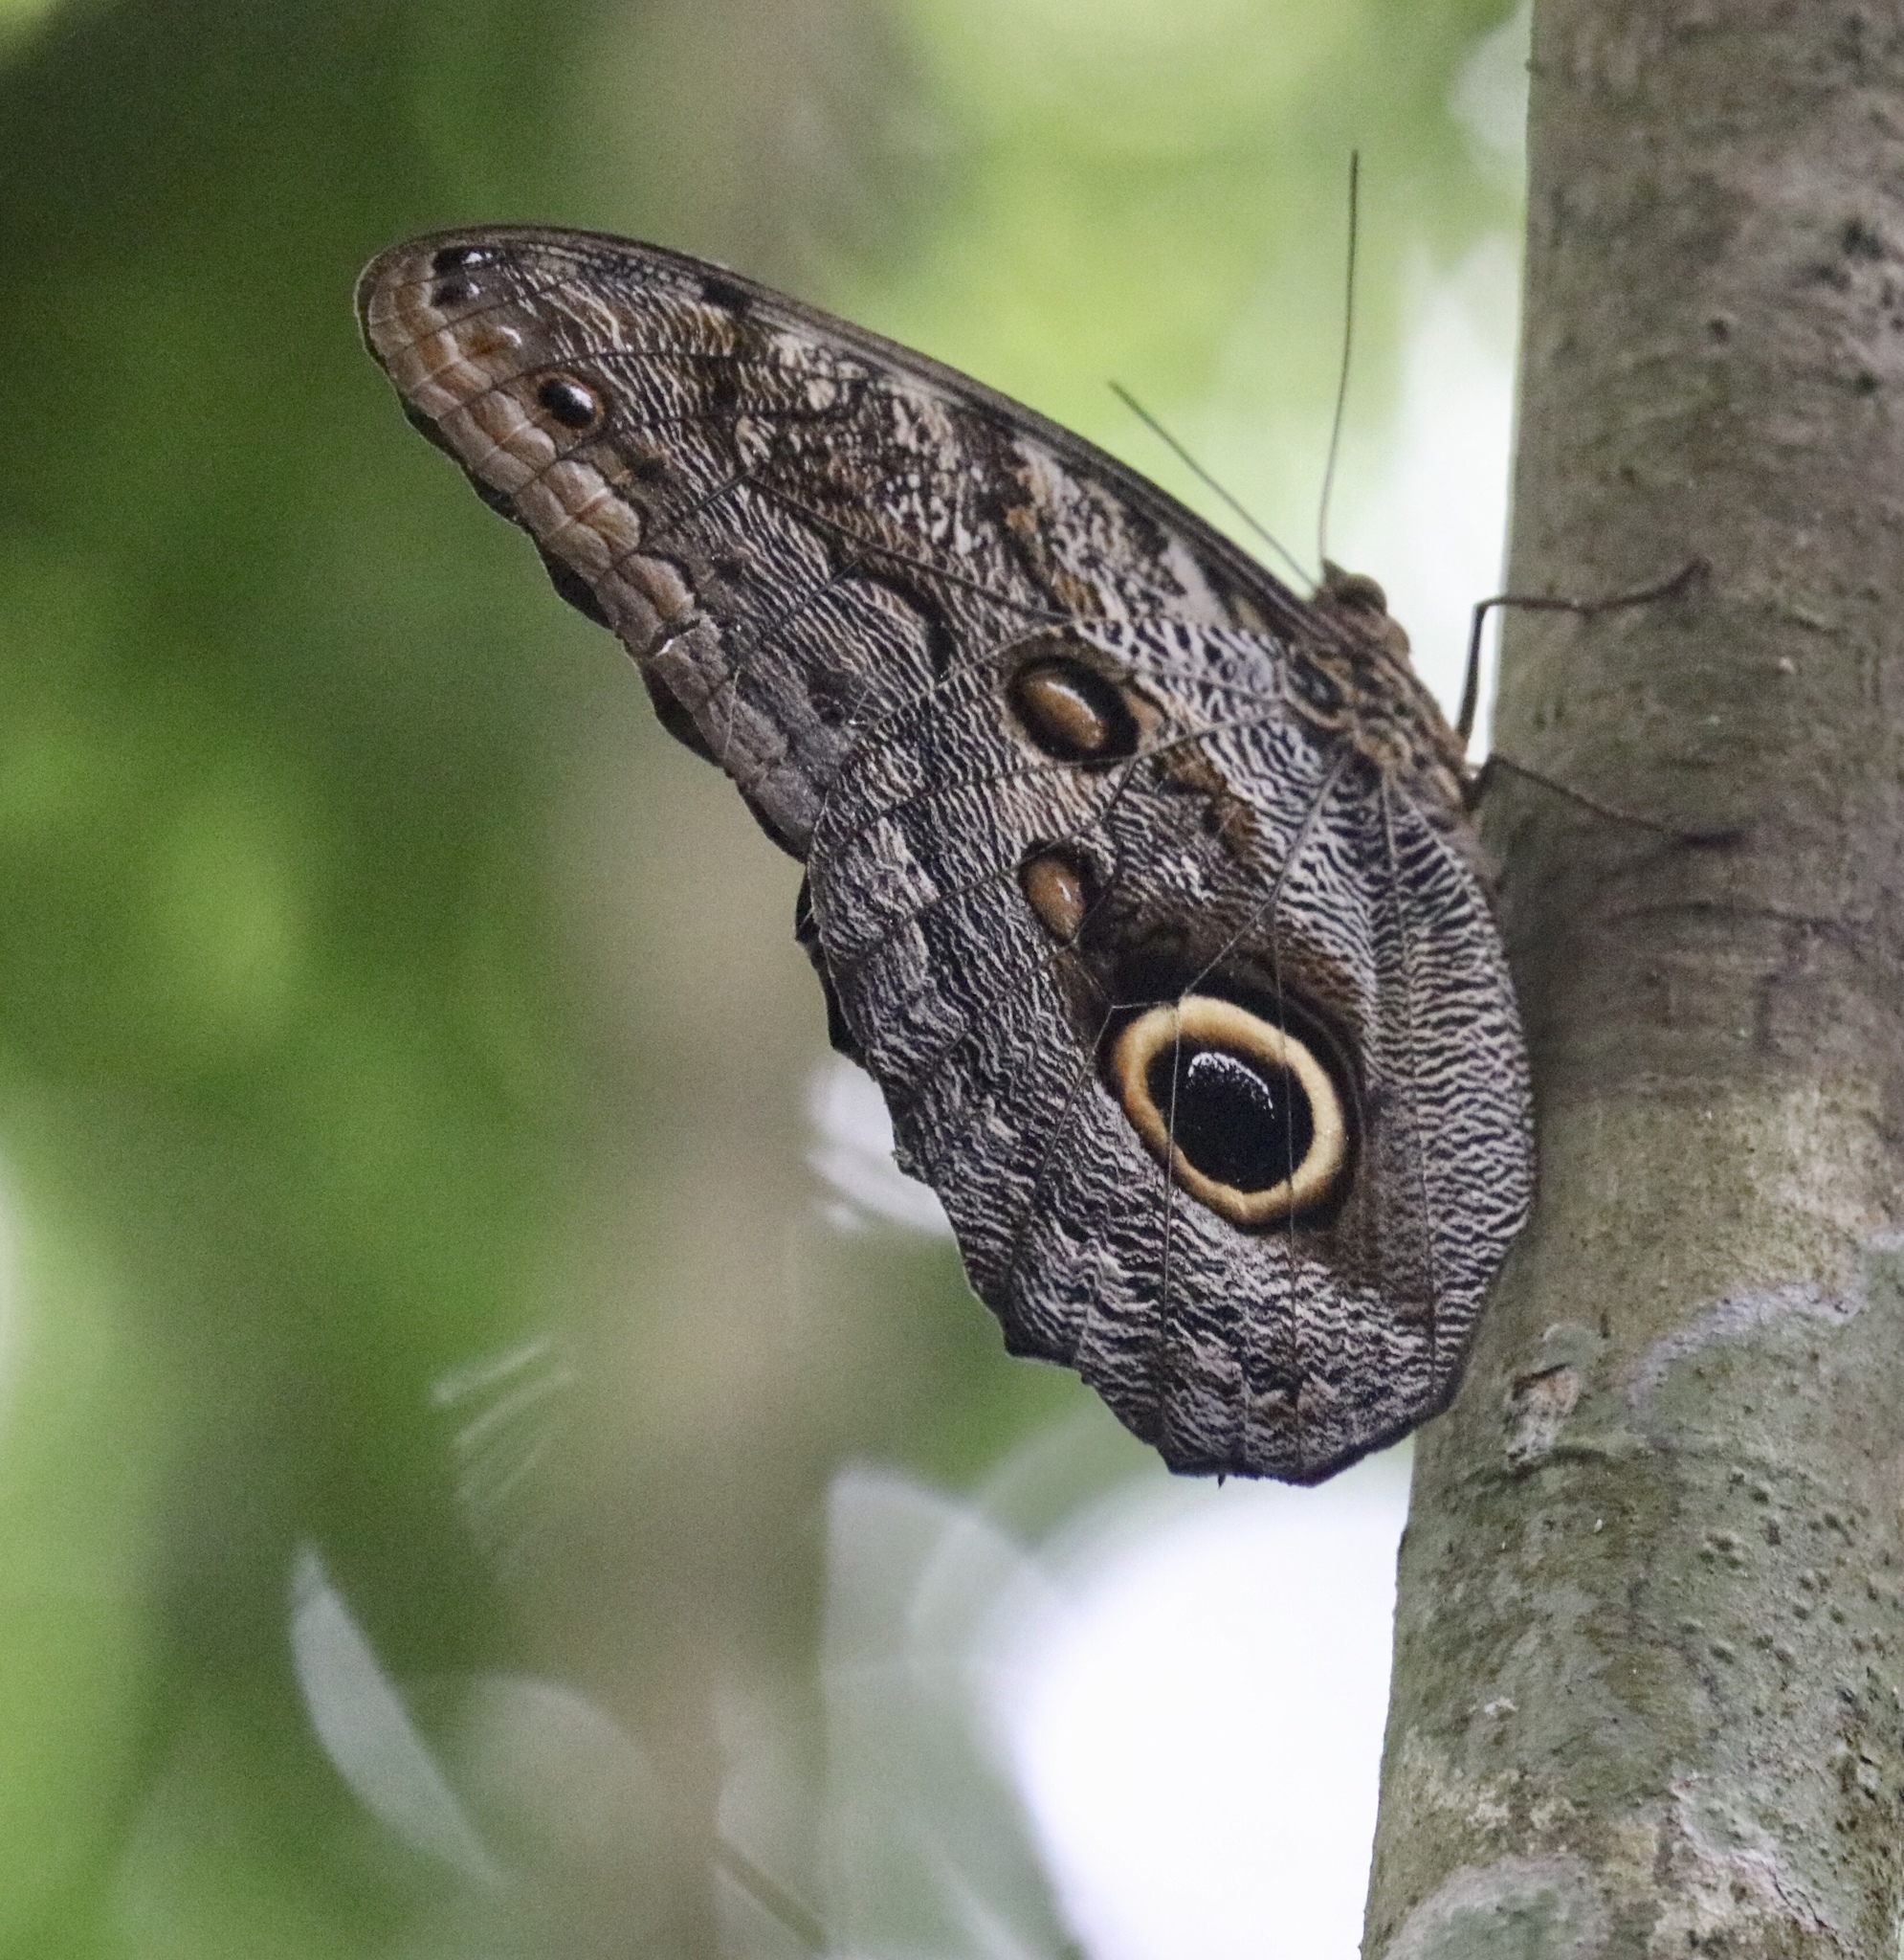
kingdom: Animalia
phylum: Arthropoda
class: Insecta
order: Lepidoptera
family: Nymphalidae
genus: Caligo
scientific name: Caligo telamonius
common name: Pale owl-butterfly
